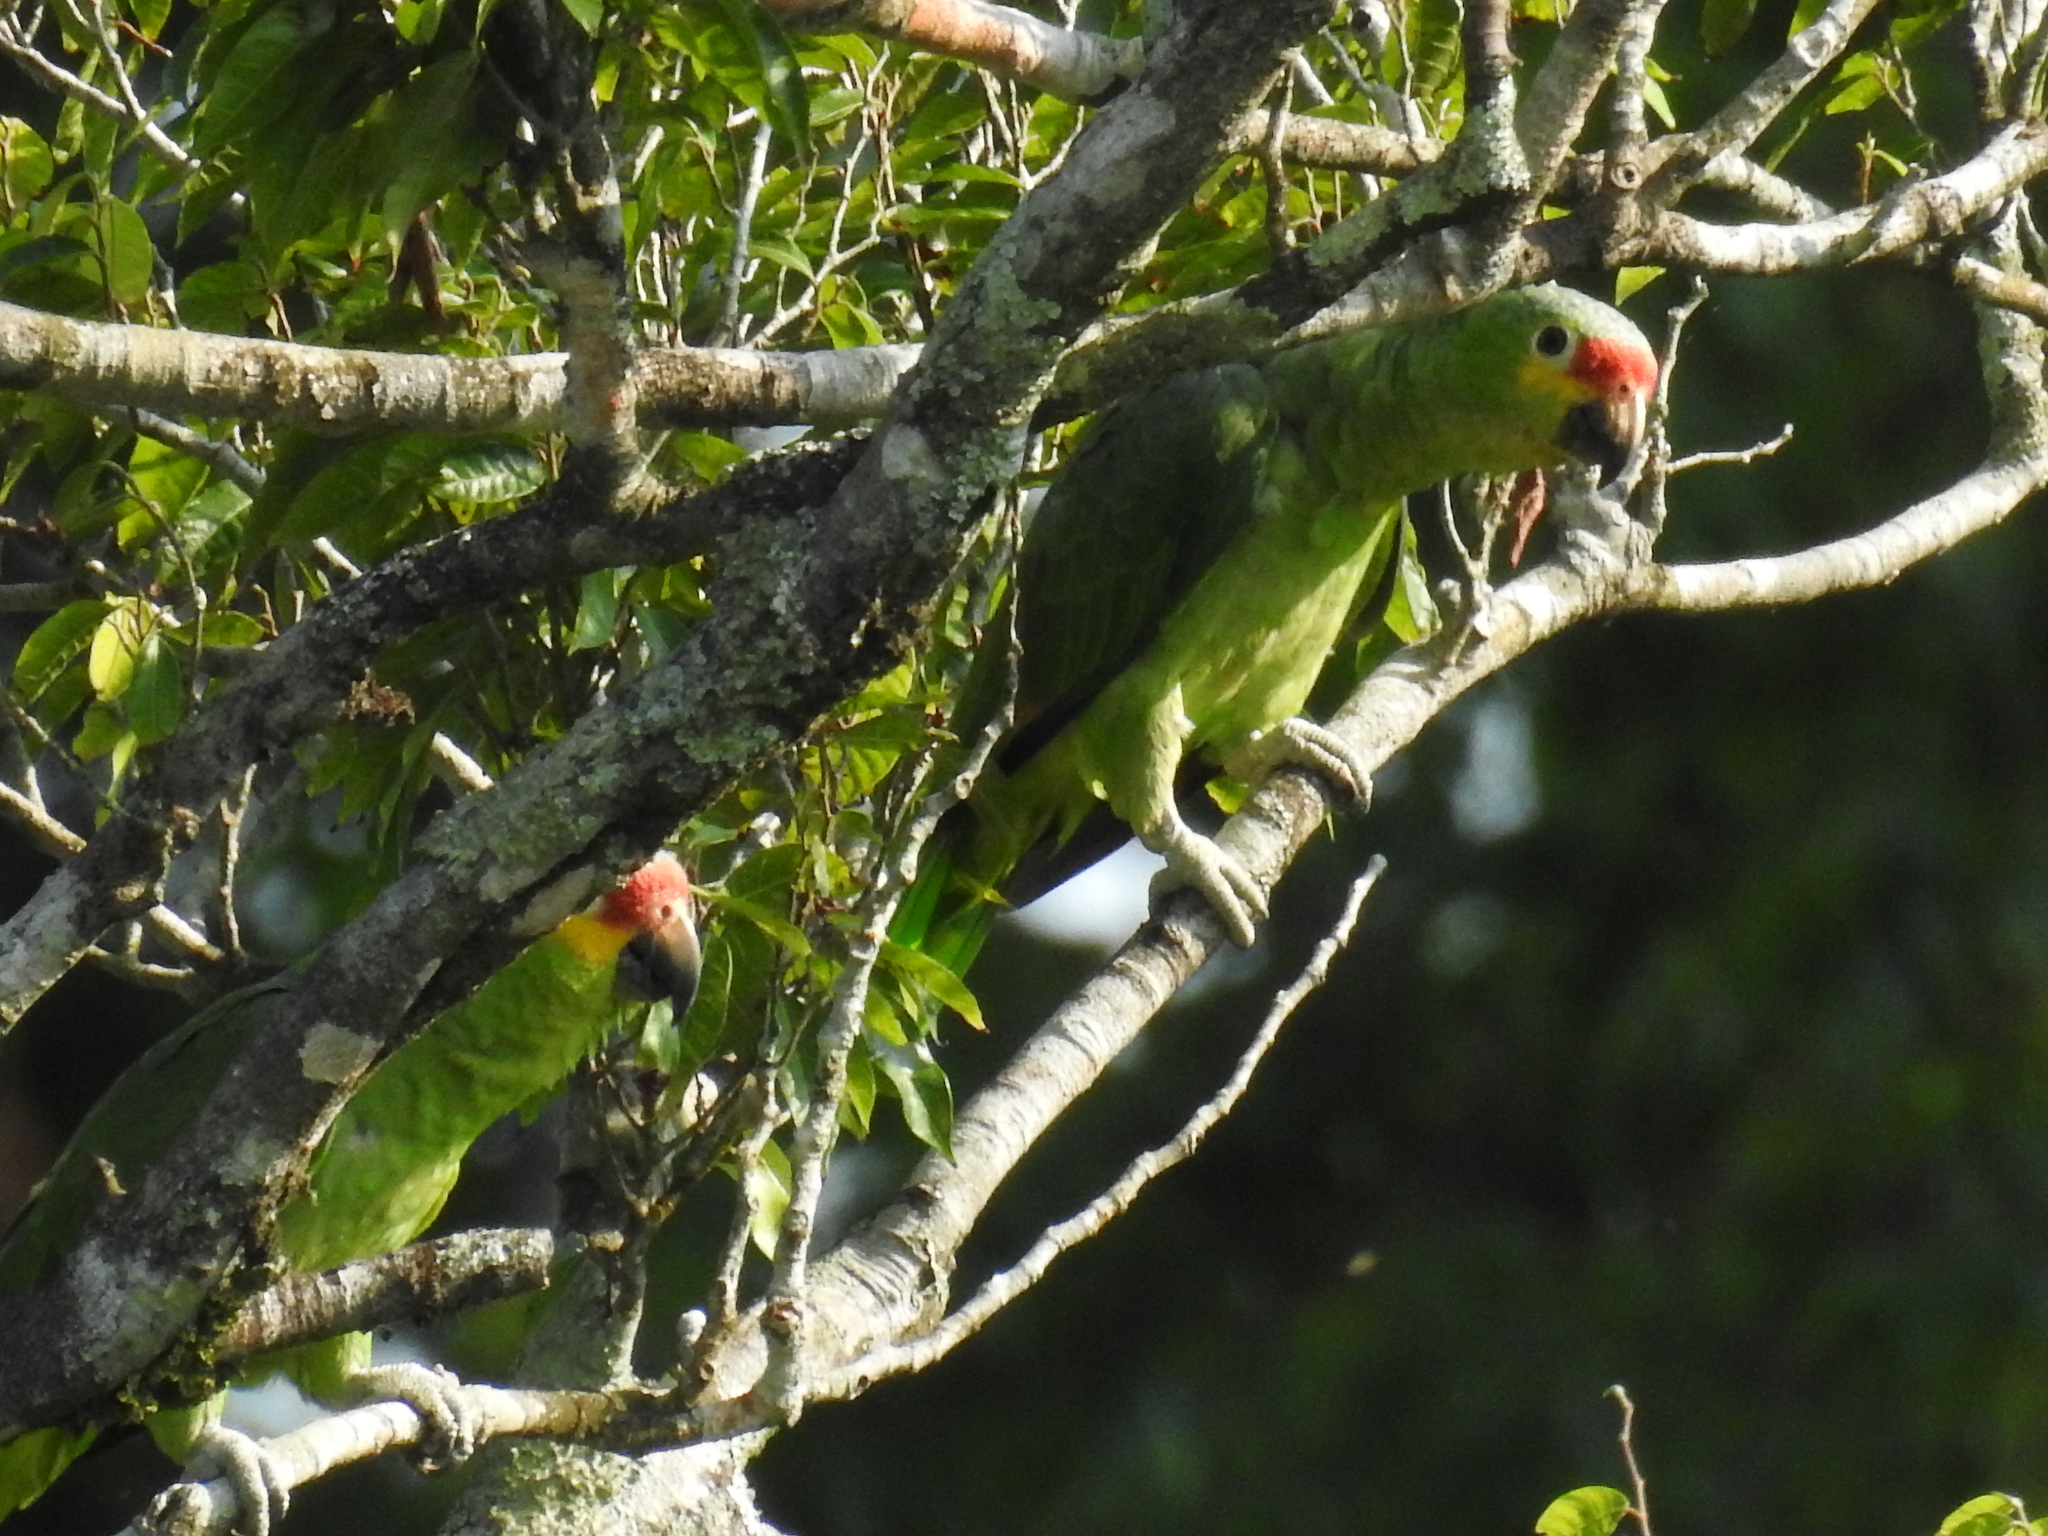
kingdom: Animalia
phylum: Chordata
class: Aves
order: Psittaciformes
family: Psittacidae
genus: Amazona
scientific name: Amazona autumnalis
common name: Red-lored amazon
